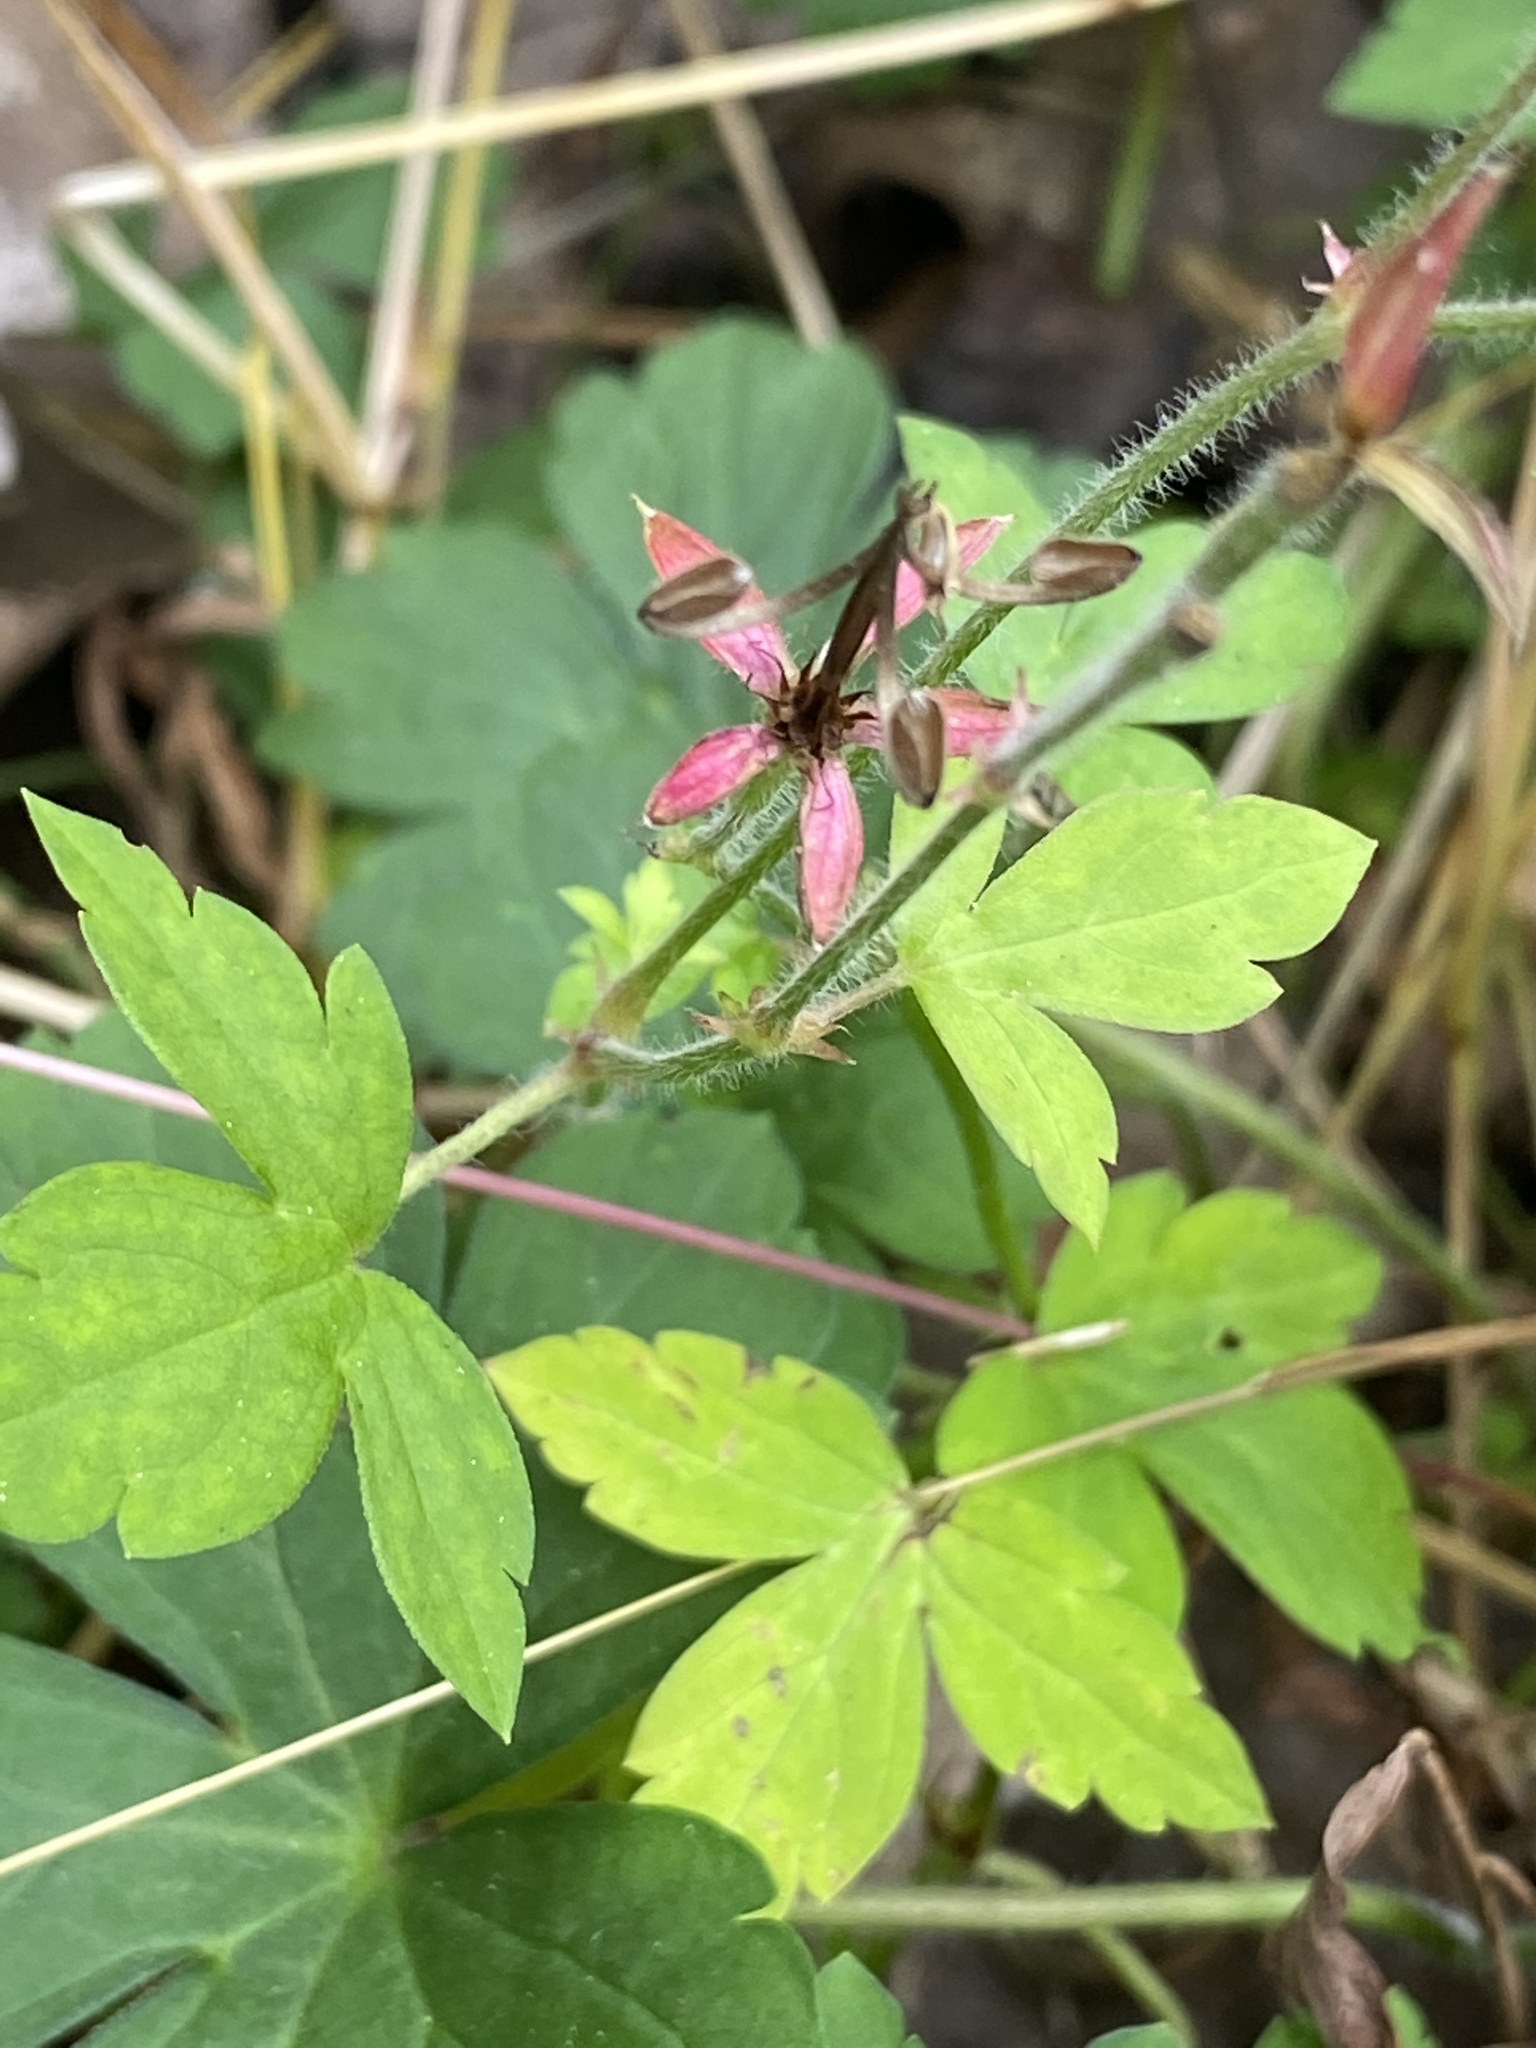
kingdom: Plantae
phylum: Tracheophyta
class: Magnoliopsida
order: Geraniales
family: Geraniaceae
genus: Geranium
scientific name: Geranium thunbergii
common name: Dewdrop crane's-bill
